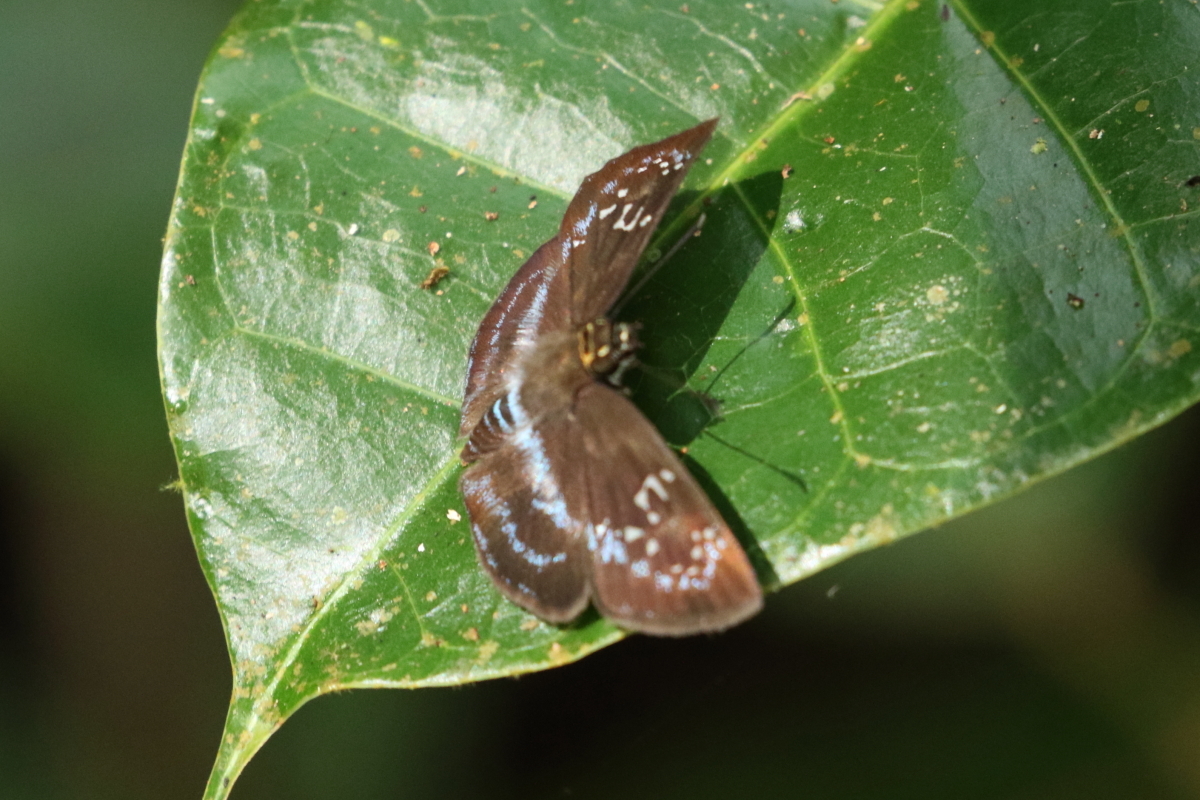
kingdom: Animalia
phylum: Arthropoda
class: Insecta
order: Lepidoptera
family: Hesperiidae
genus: Quadrus
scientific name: Quadrus cerialis
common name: Common blue-skipper
